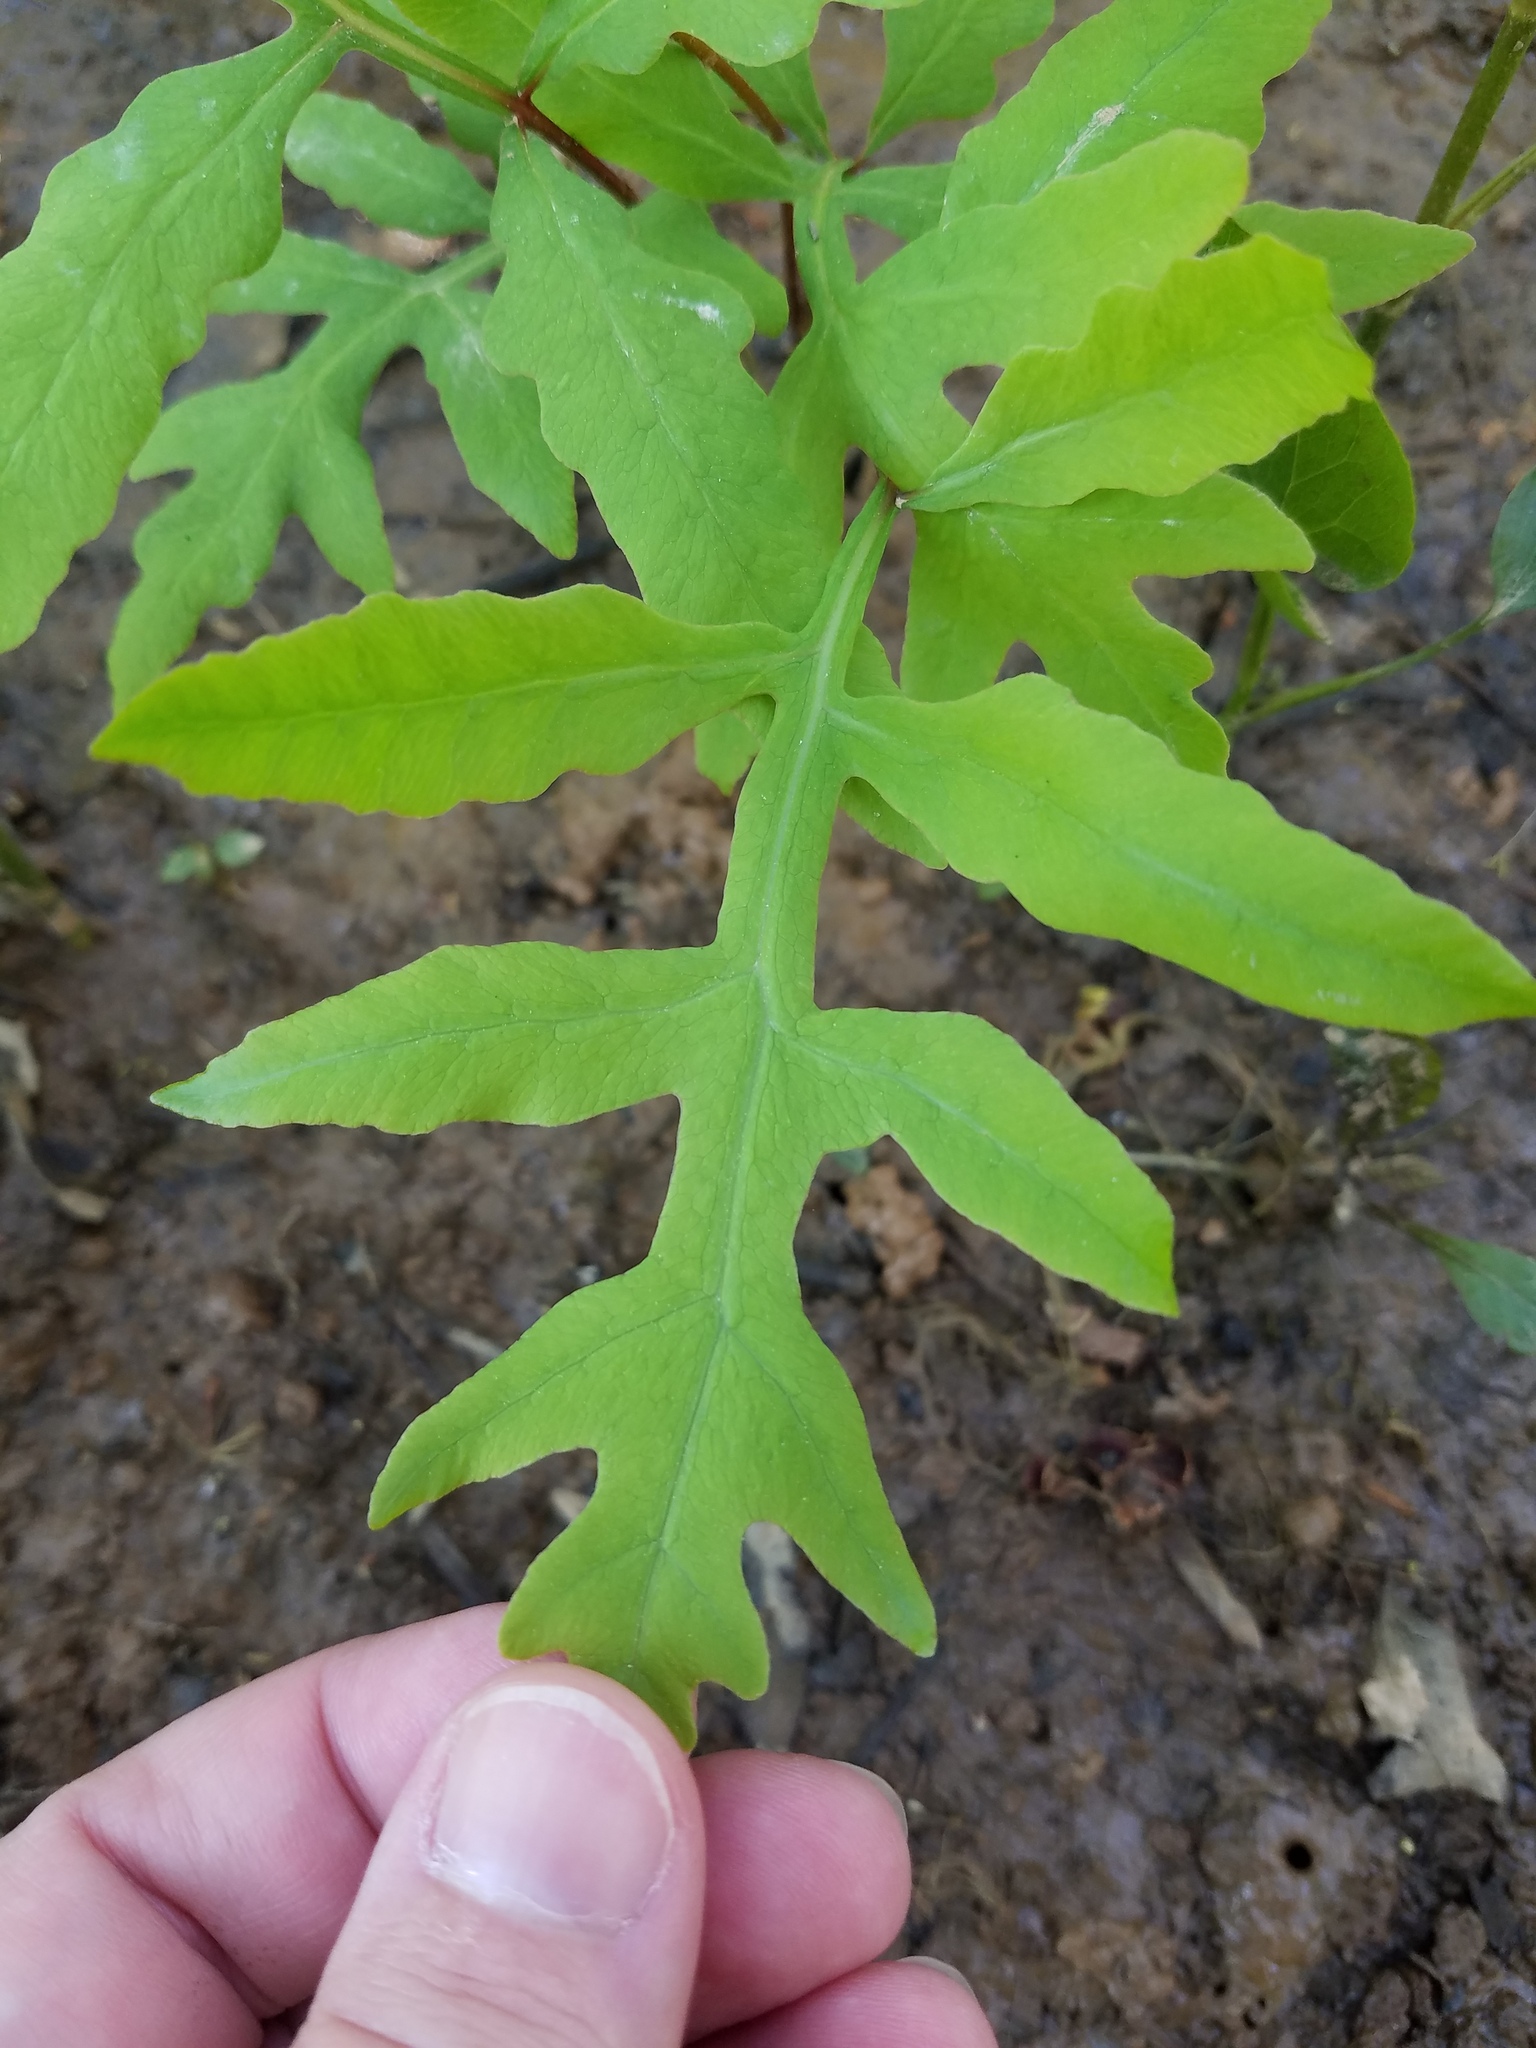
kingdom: Plantae
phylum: Tracheophyta
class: Polypodiopsida
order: Polypodiales
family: Onocleaceae
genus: Onoclea
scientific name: Onoclea sensibilis
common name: Sensitive fern
